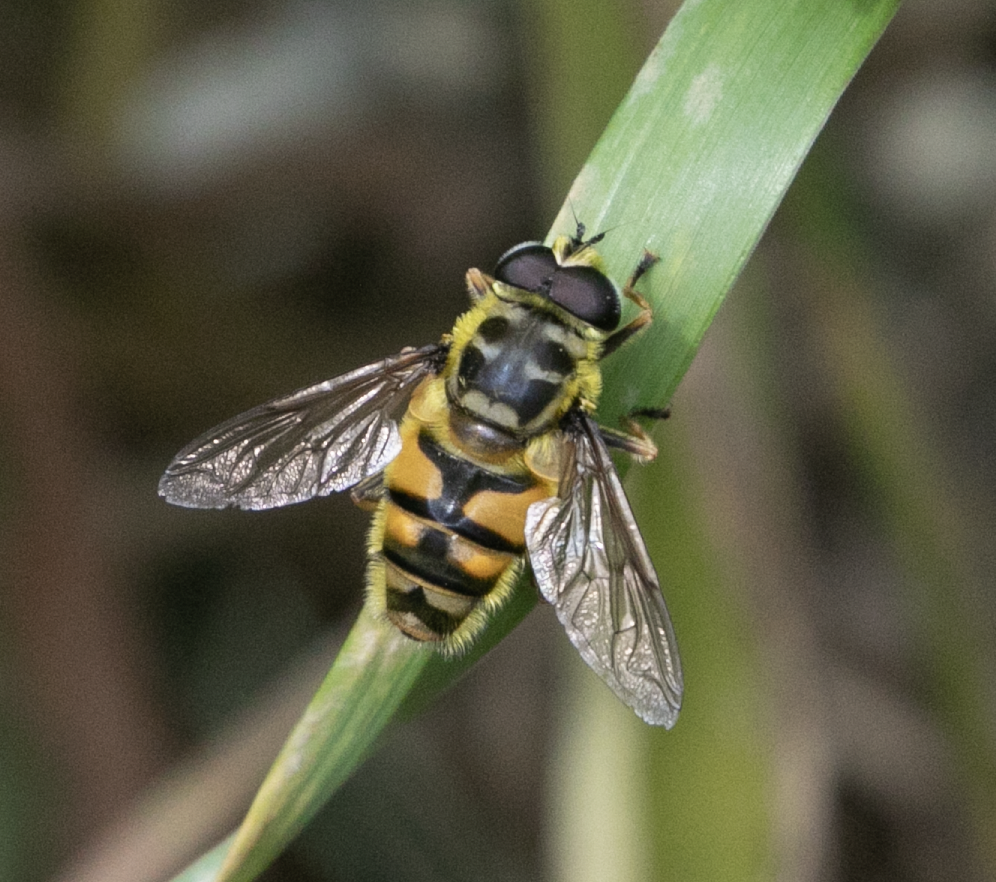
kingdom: Animalia
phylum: Arthropoda
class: Insecta
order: Diptera
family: Syrphidae
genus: Myathropa
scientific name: Myathropa florea
